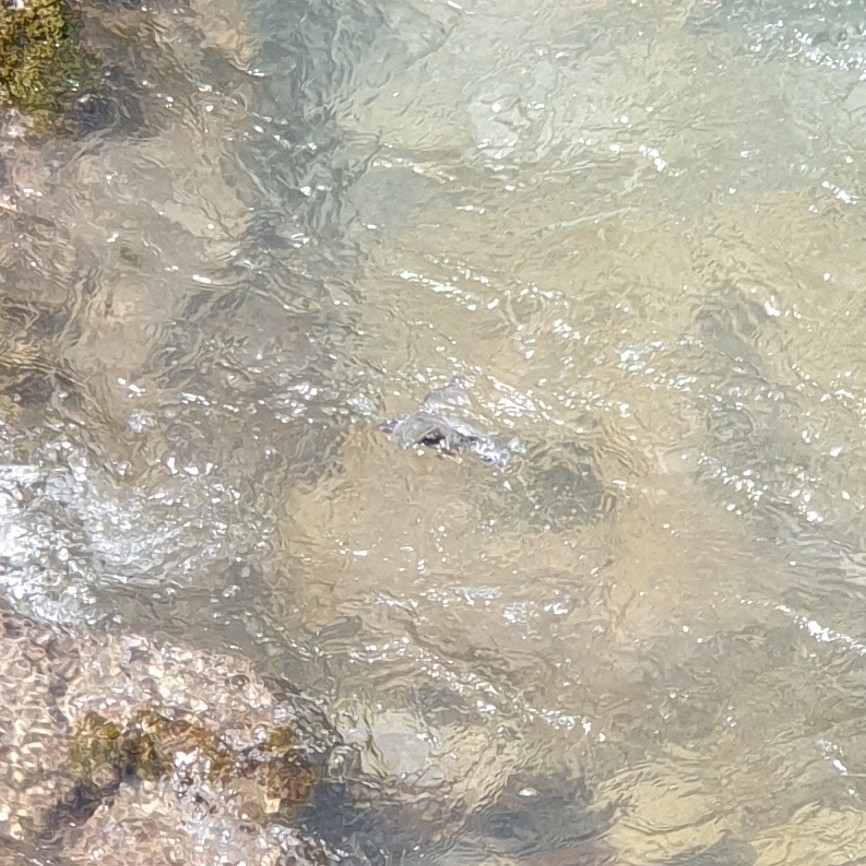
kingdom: Animalia
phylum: Chordata
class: Aves
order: Passeriformes
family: Cinclidae
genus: Cinclus
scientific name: Cinclus cinclus
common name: White-throated dipper
